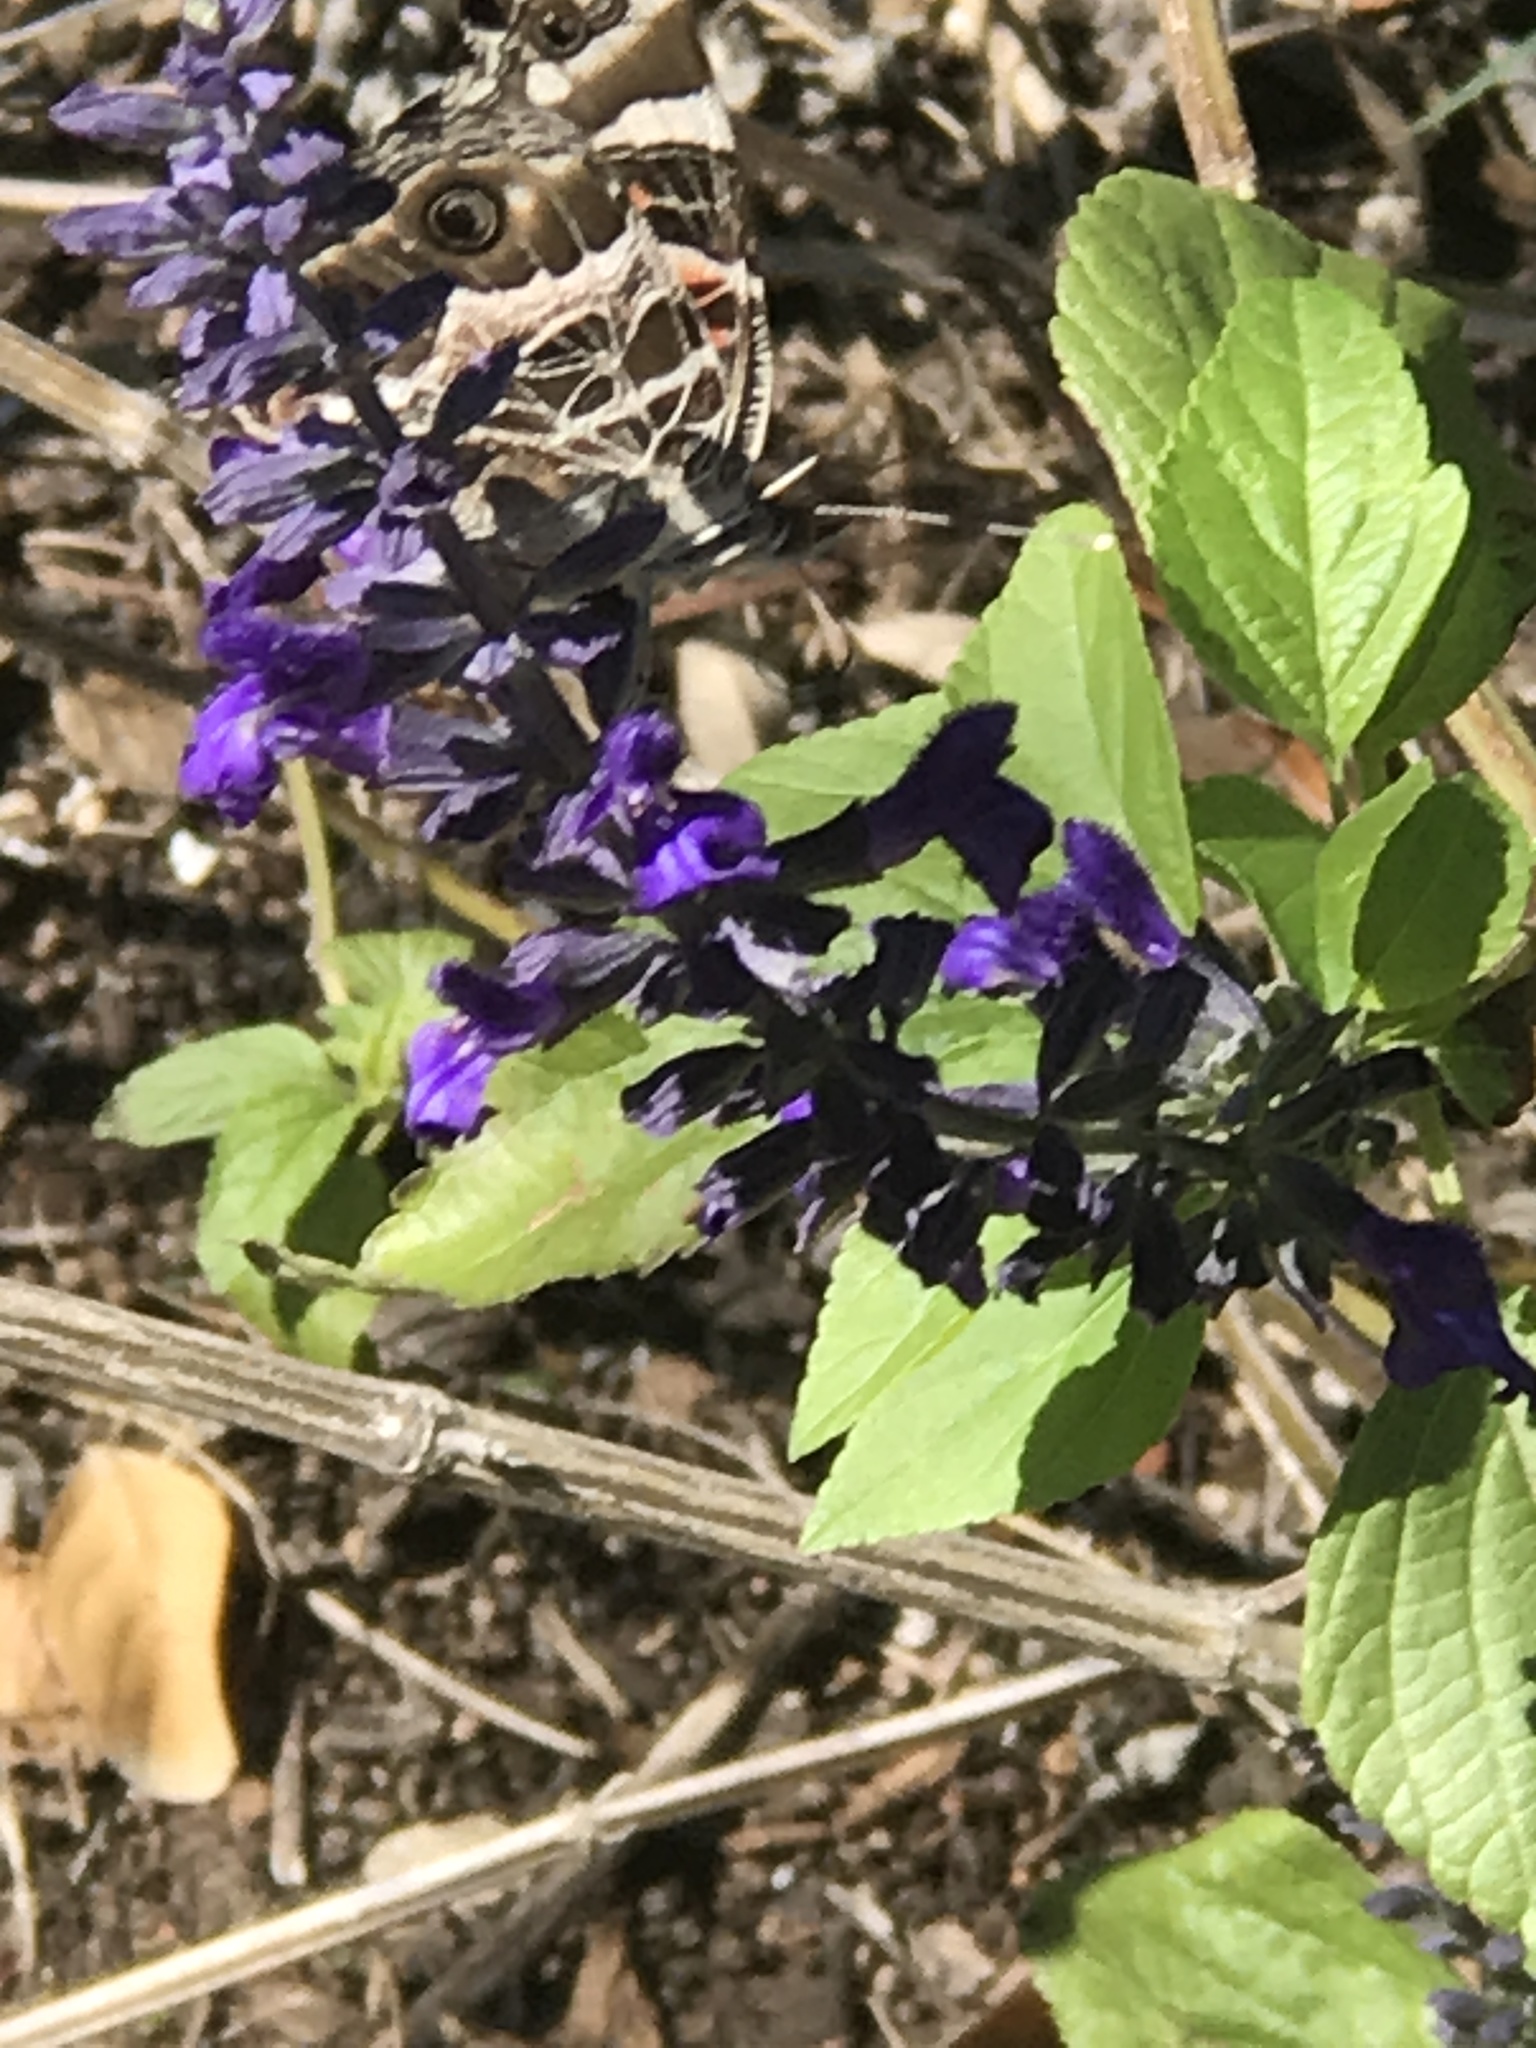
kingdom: Animalia
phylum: Arthropoda
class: Insecta
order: Lepidoptera
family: Nymphalidae
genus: Vanessa
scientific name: Vanessa virginiensis
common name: American lady
